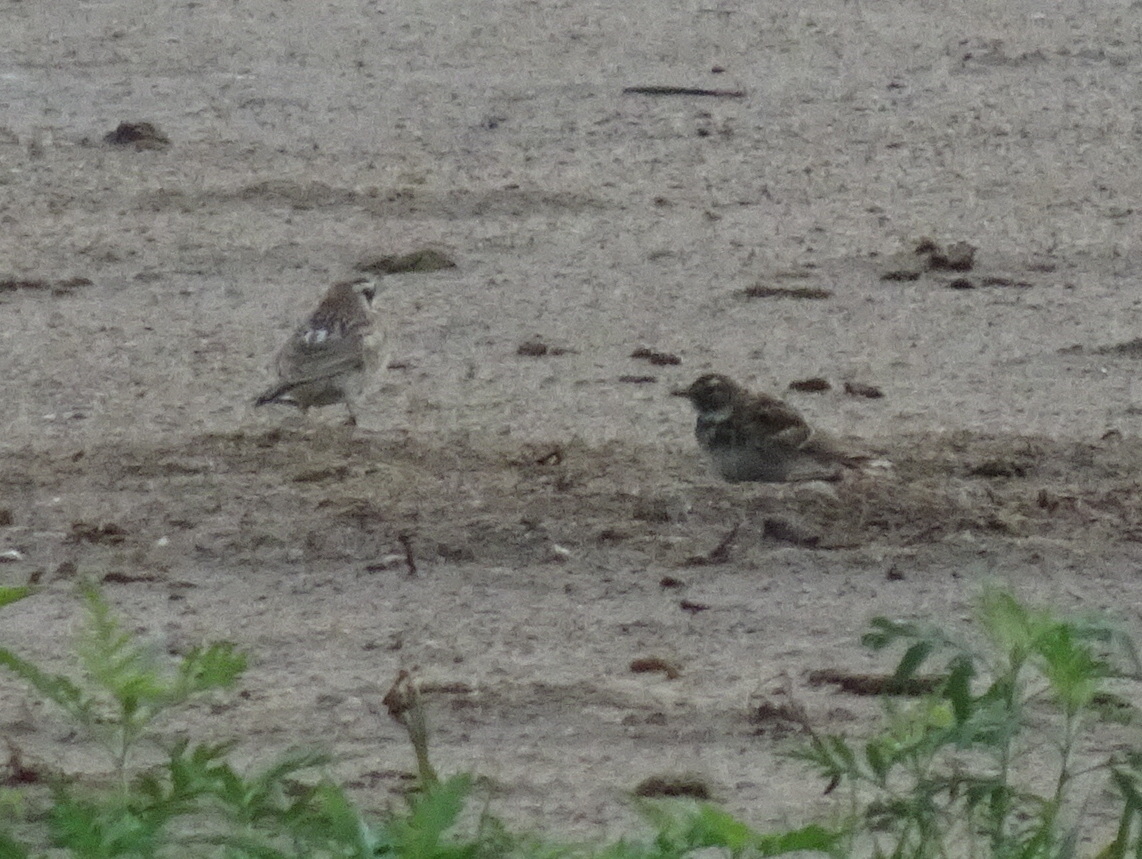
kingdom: Animalia
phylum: Chordata
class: Aves
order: Passeriformes
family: Alaudidae
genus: Eremophila
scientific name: Eremophila alpestris
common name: Horned lark
